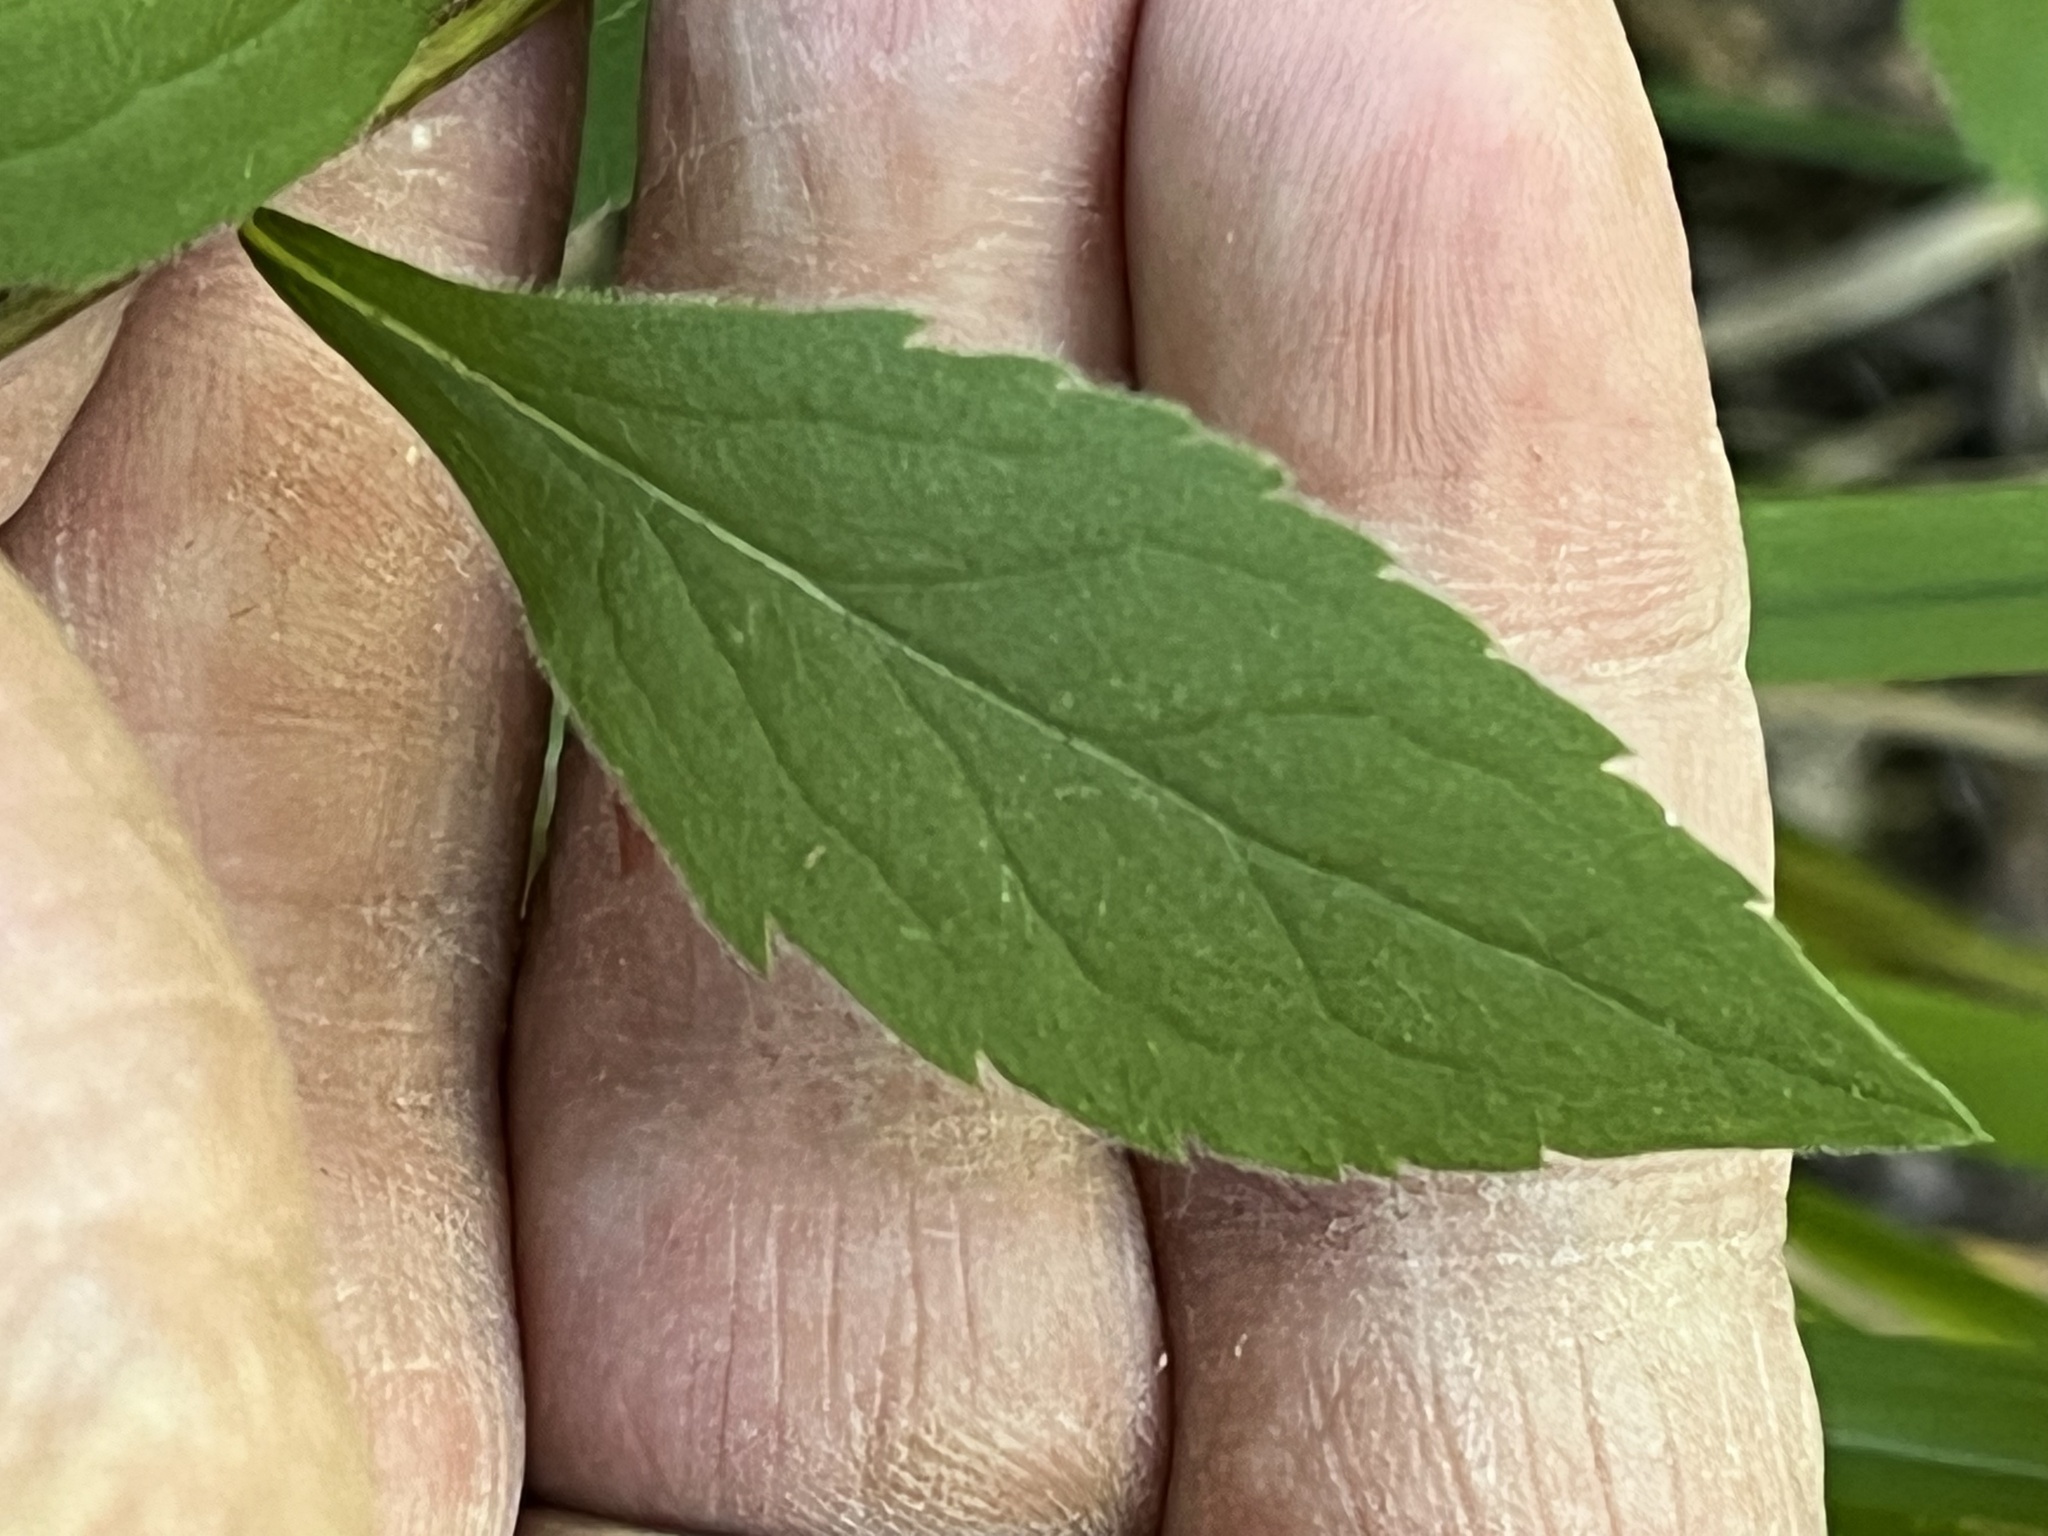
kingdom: Plantae
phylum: Tracheophyta
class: Magnoliopsida
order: Asterales
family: Asteraceae
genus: Solidago
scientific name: Solidago ulmifolia
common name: Elm-leaf goldenrod
